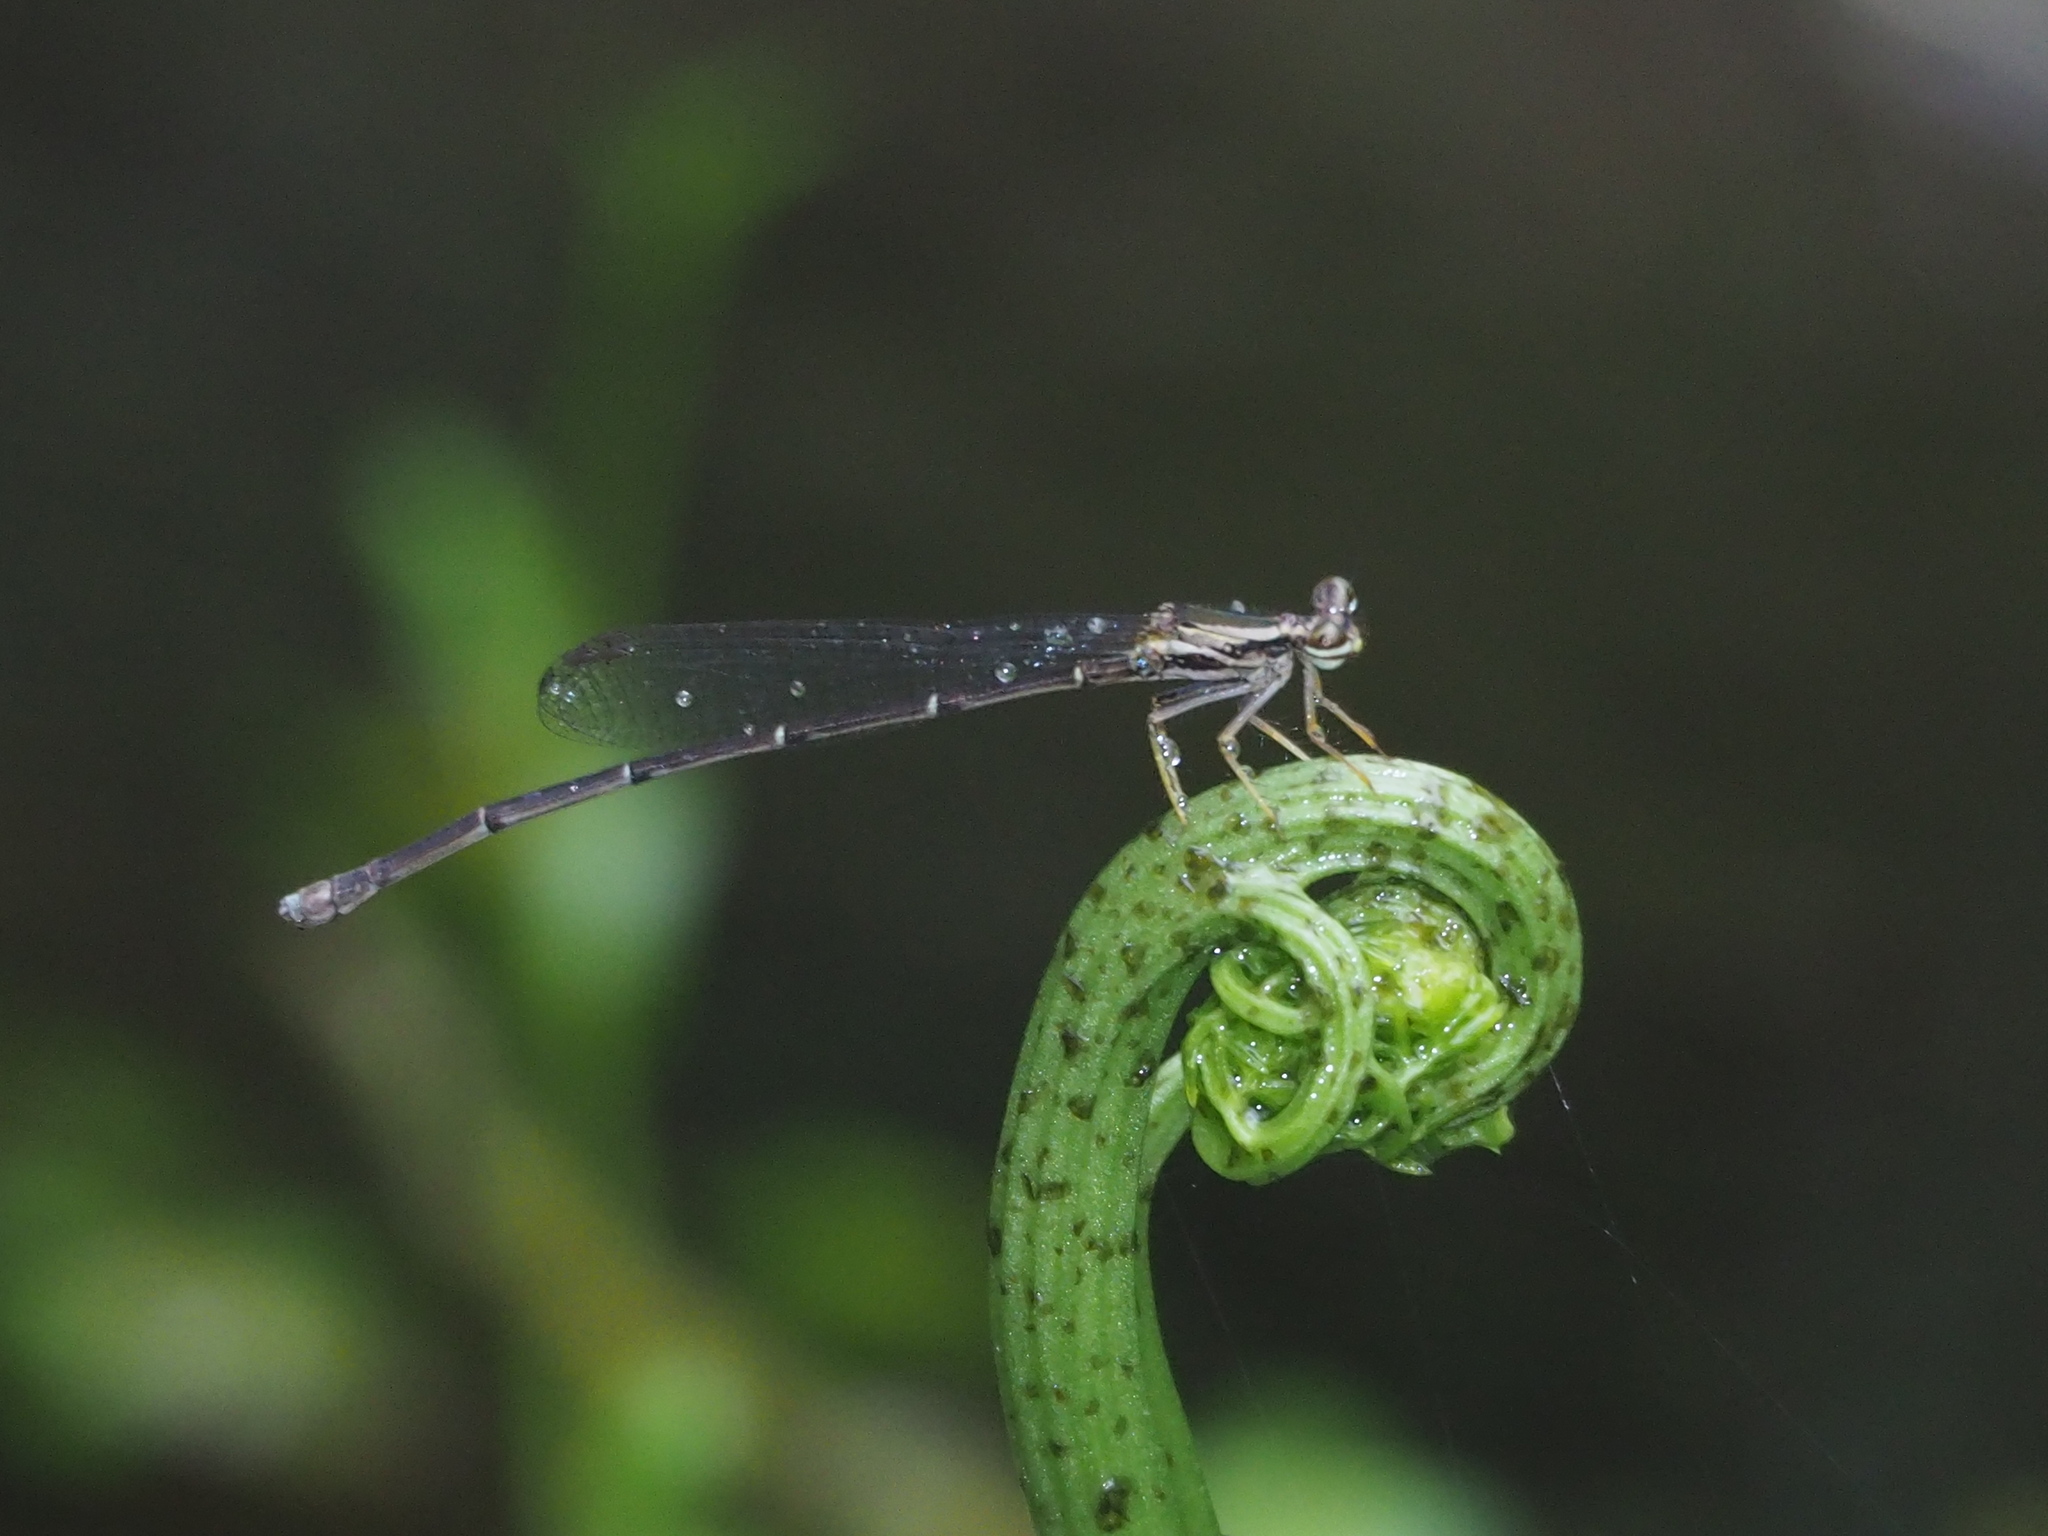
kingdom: Animalia
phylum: Arthropoda
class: Insecta
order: Odonata
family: Platycnemididae
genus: Copera
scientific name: Copera marginipes
